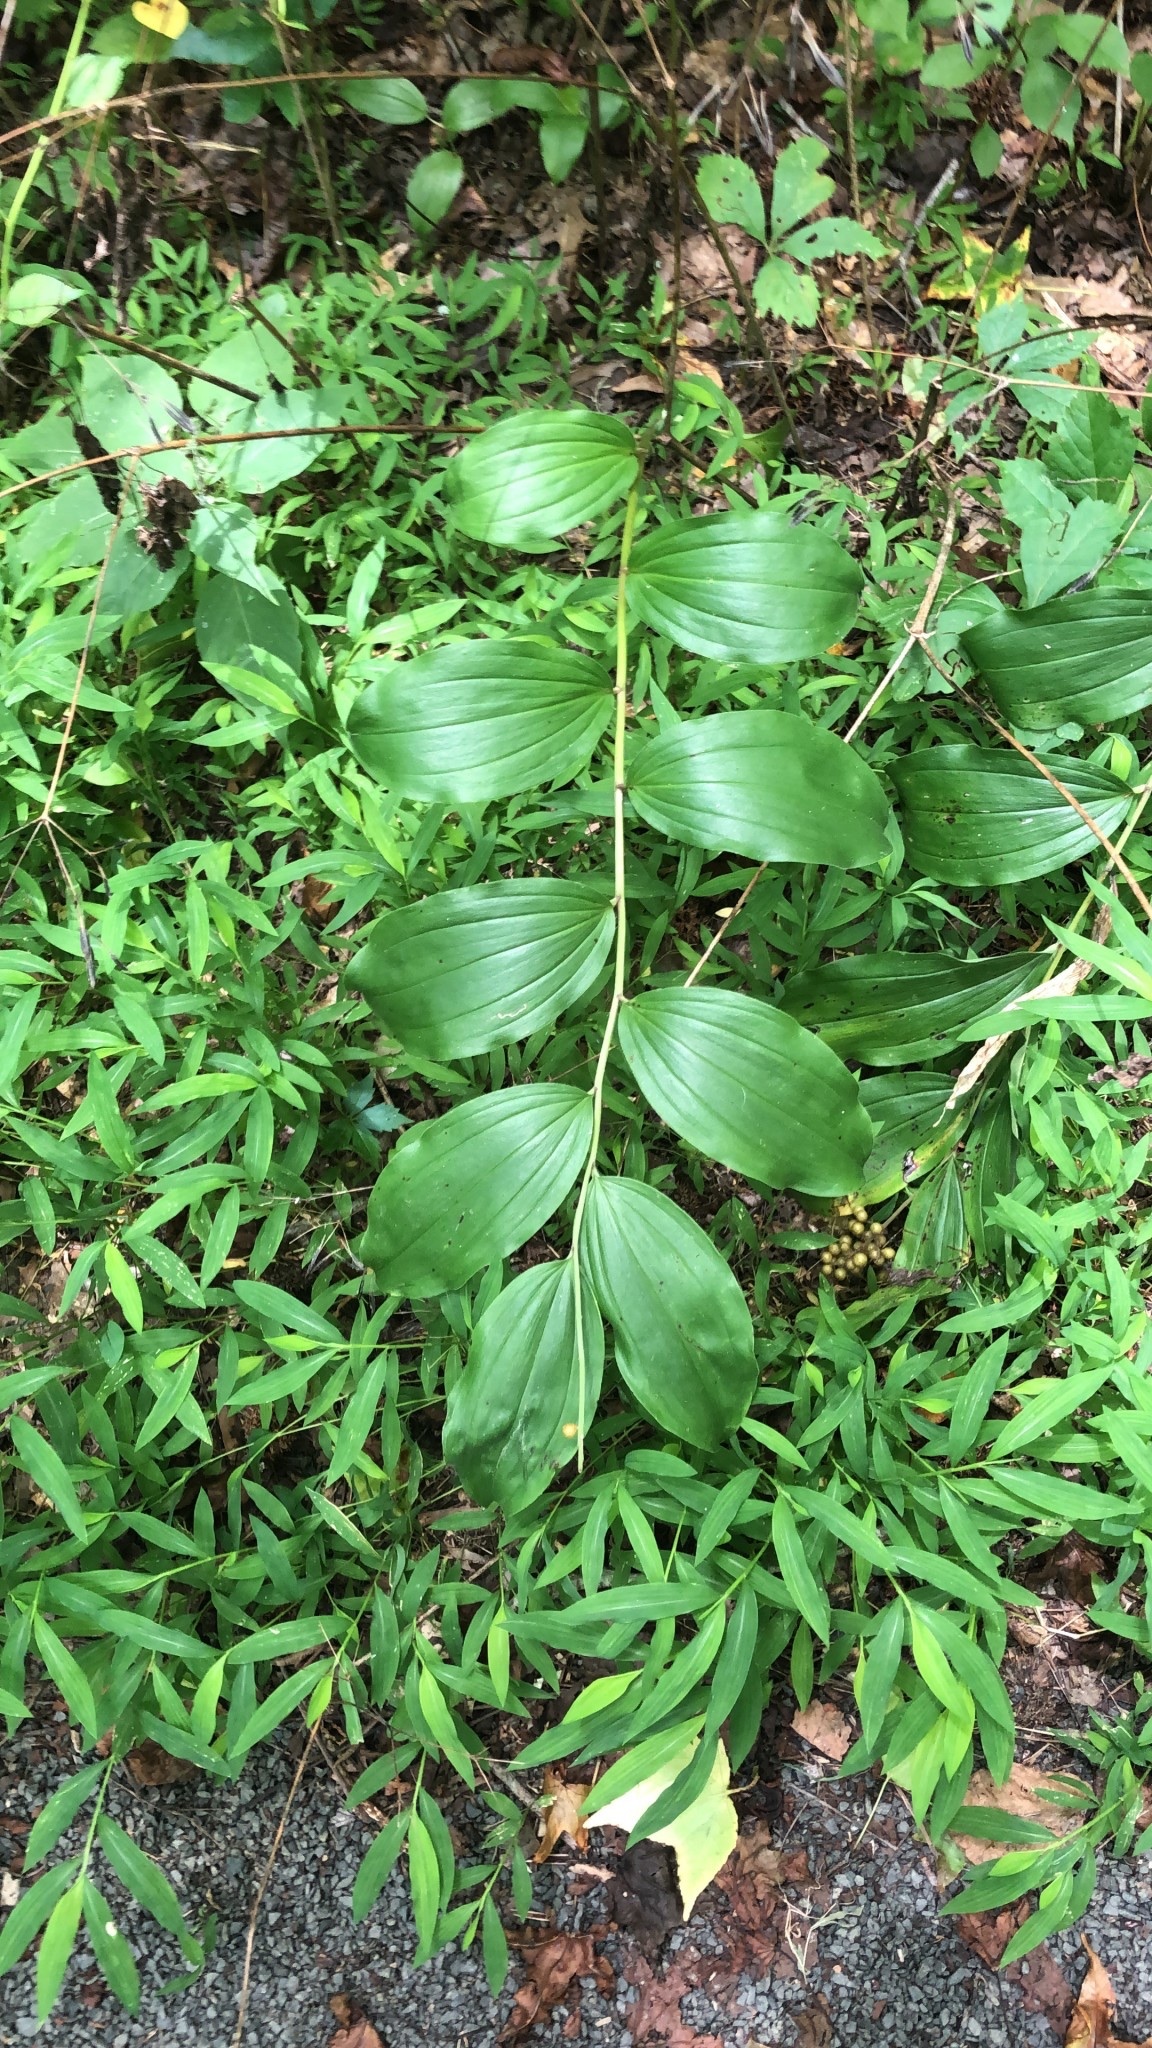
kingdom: Plantae
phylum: Tracheophyta
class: Liliopsida
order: Asparagales
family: Asparagaceae
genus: Maianthemum
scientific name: Maianthemum racemosum
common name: False spikenard
